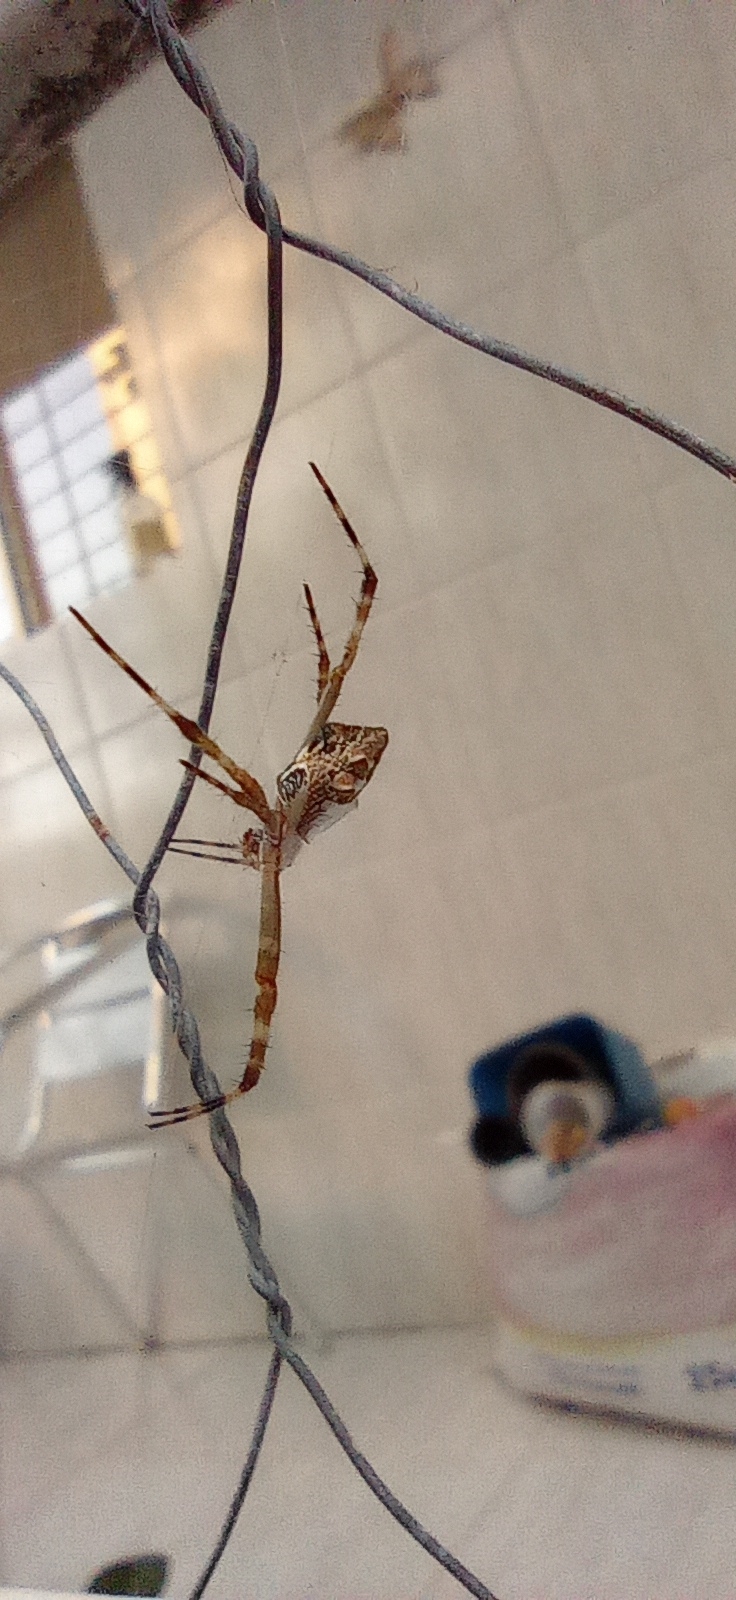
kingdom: Animalia
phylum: Arthropoda
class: Arachnida
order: Araneae
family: Araneidae
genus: Argiope
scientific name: Argiope argentata
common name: Orb weavers
